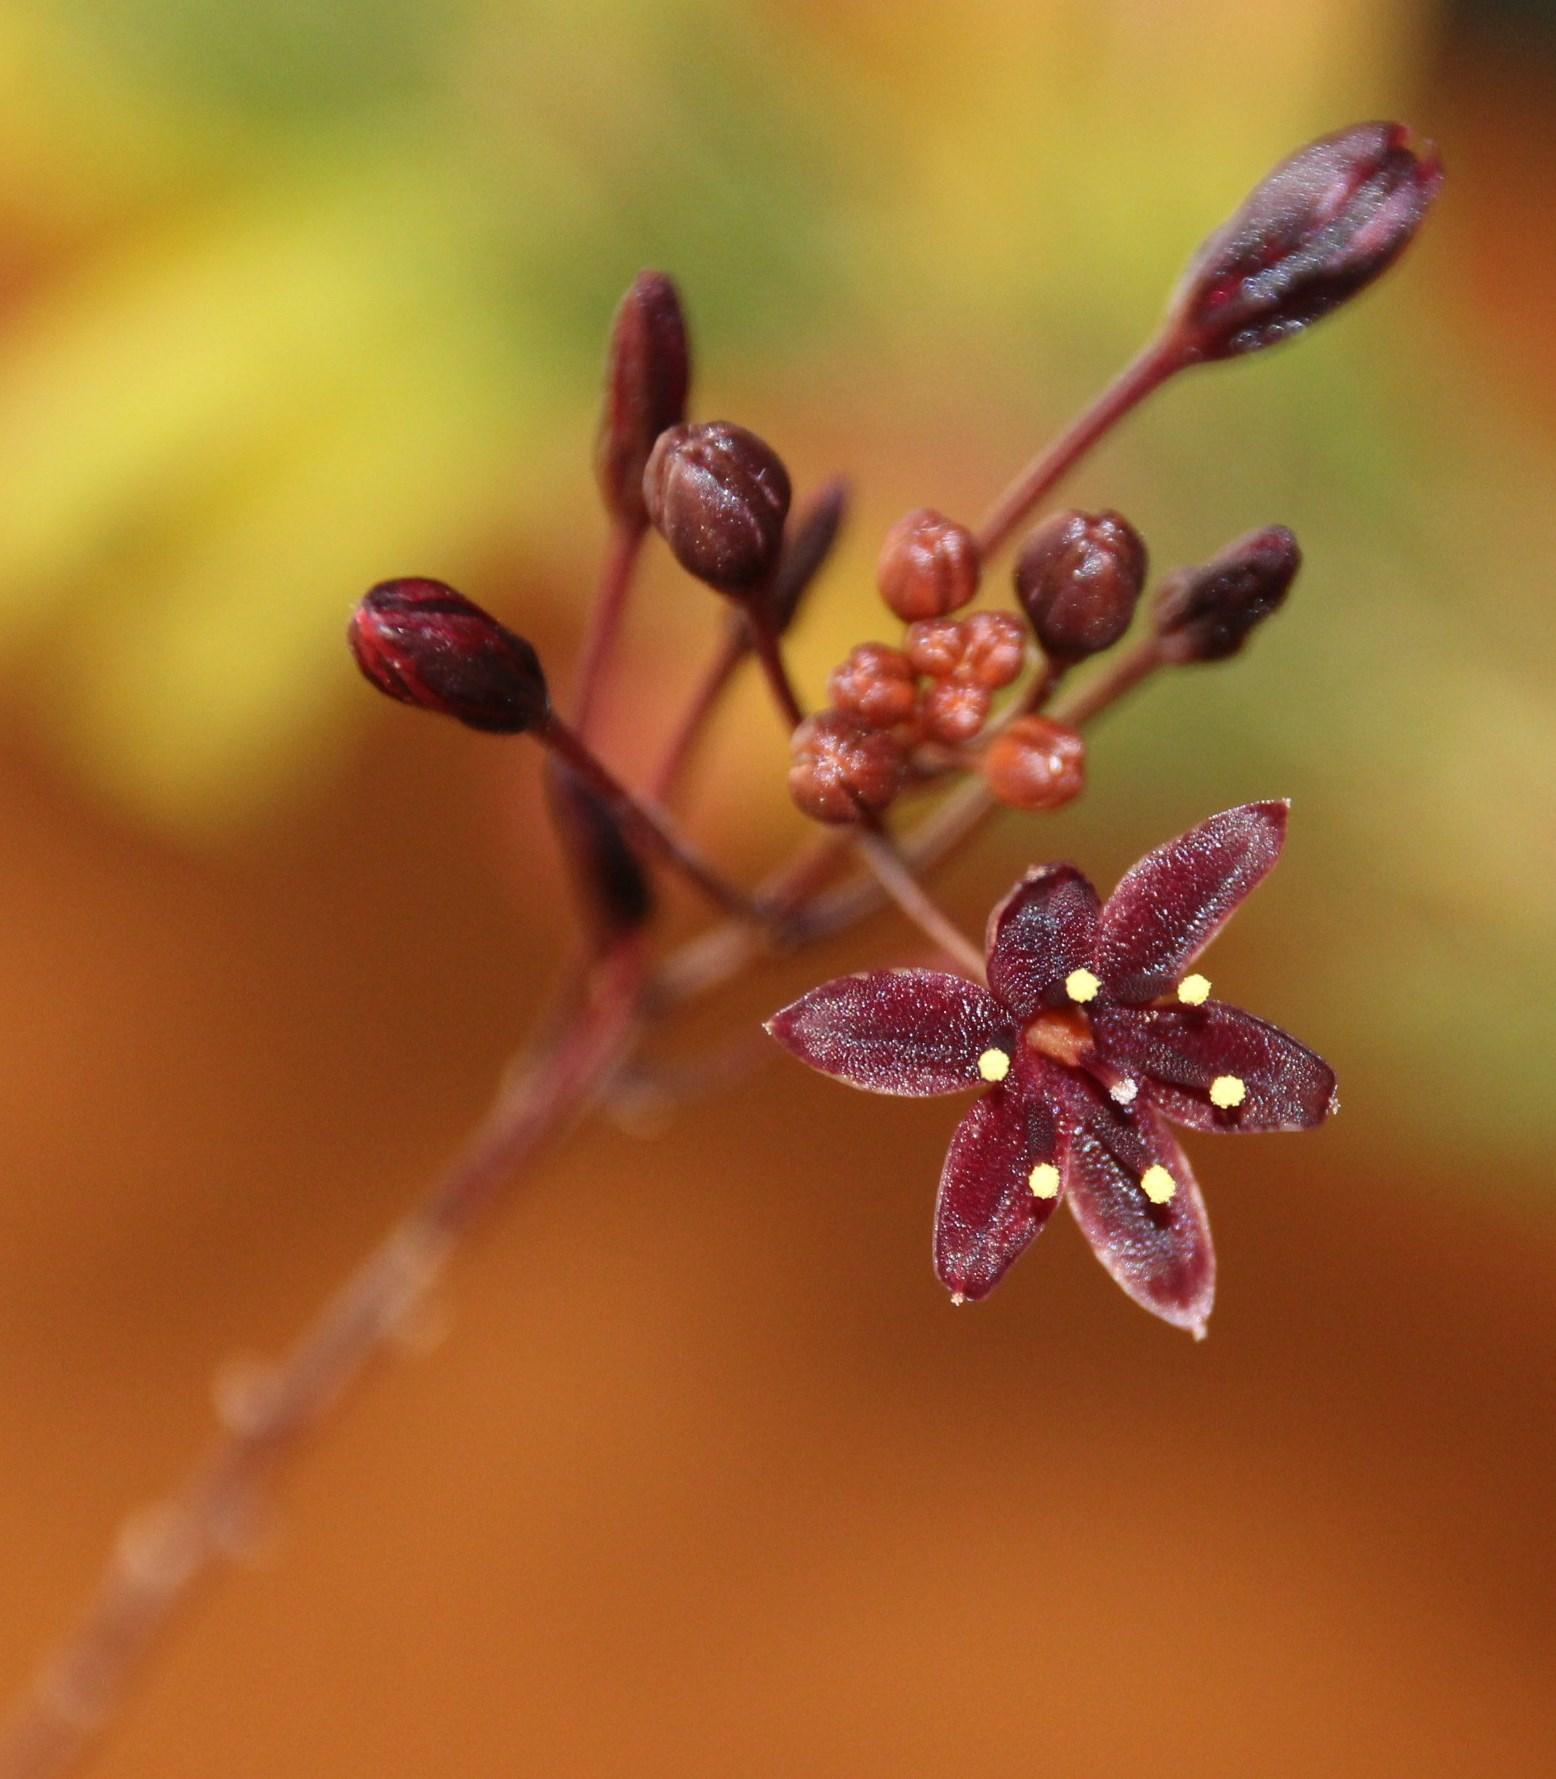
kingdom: Plantae
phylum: Tracheophyta
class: Liliopsida
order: Asparagales
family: Asparagaceae
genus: Drimia
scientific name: Drimia salteri
